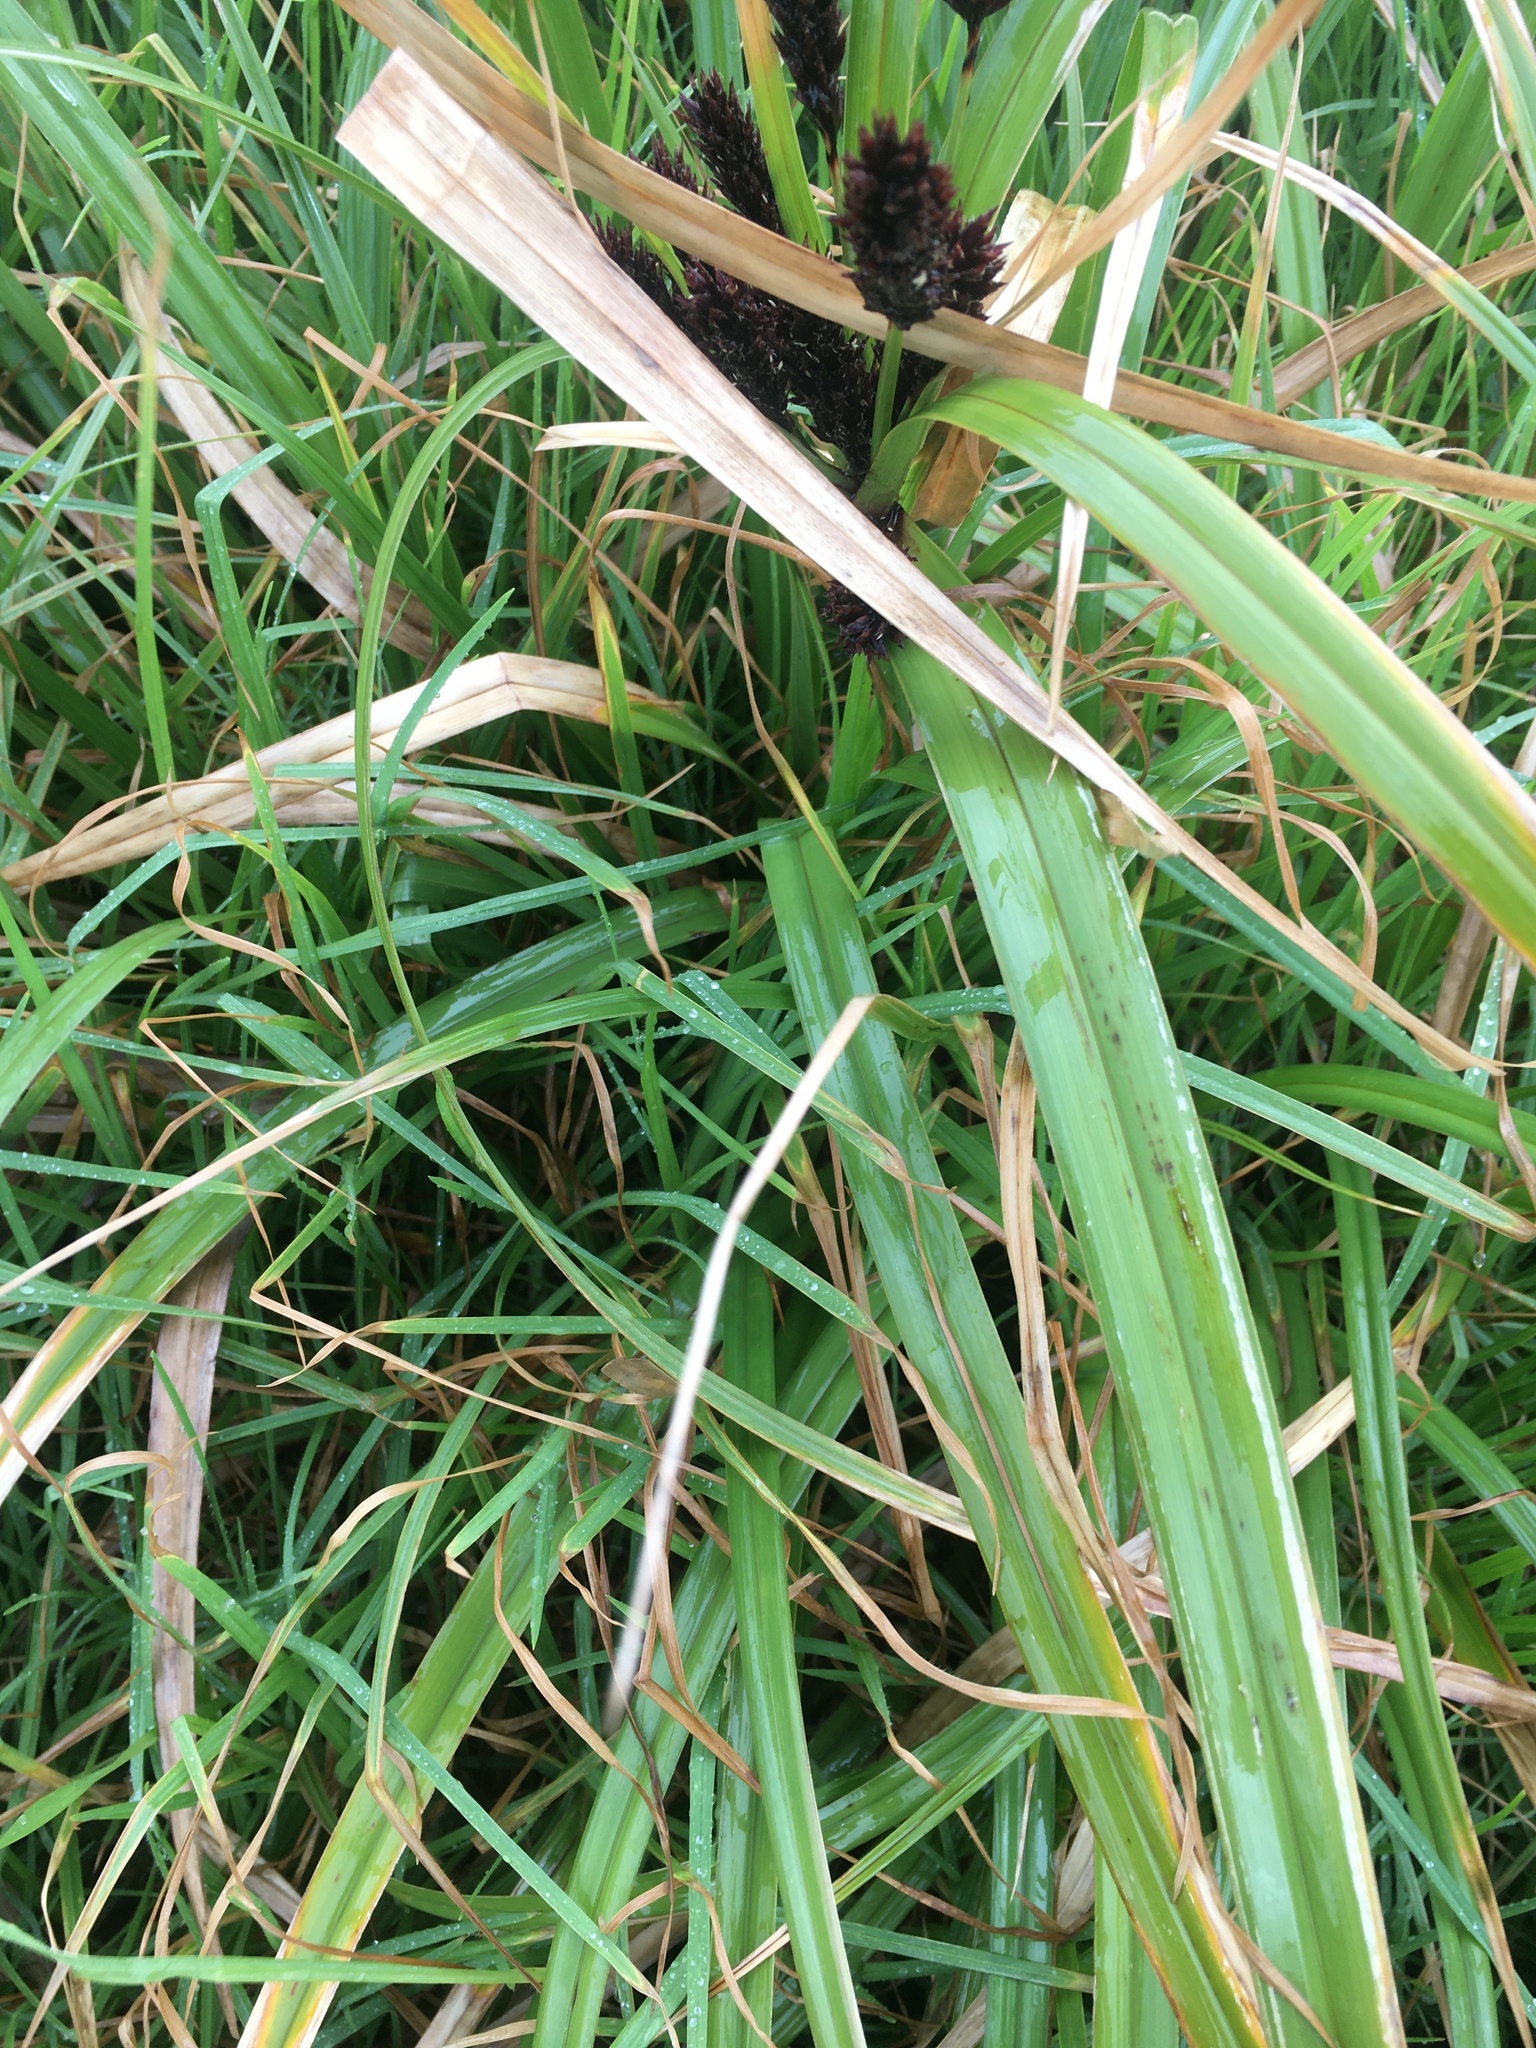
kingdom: Plantae
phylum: Tracheophyta
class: Liliopsida
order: Poales
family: Cyperaceae
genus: Cyperus
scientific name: Cyperus ustulatus
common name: Giant umbrella-sedge
